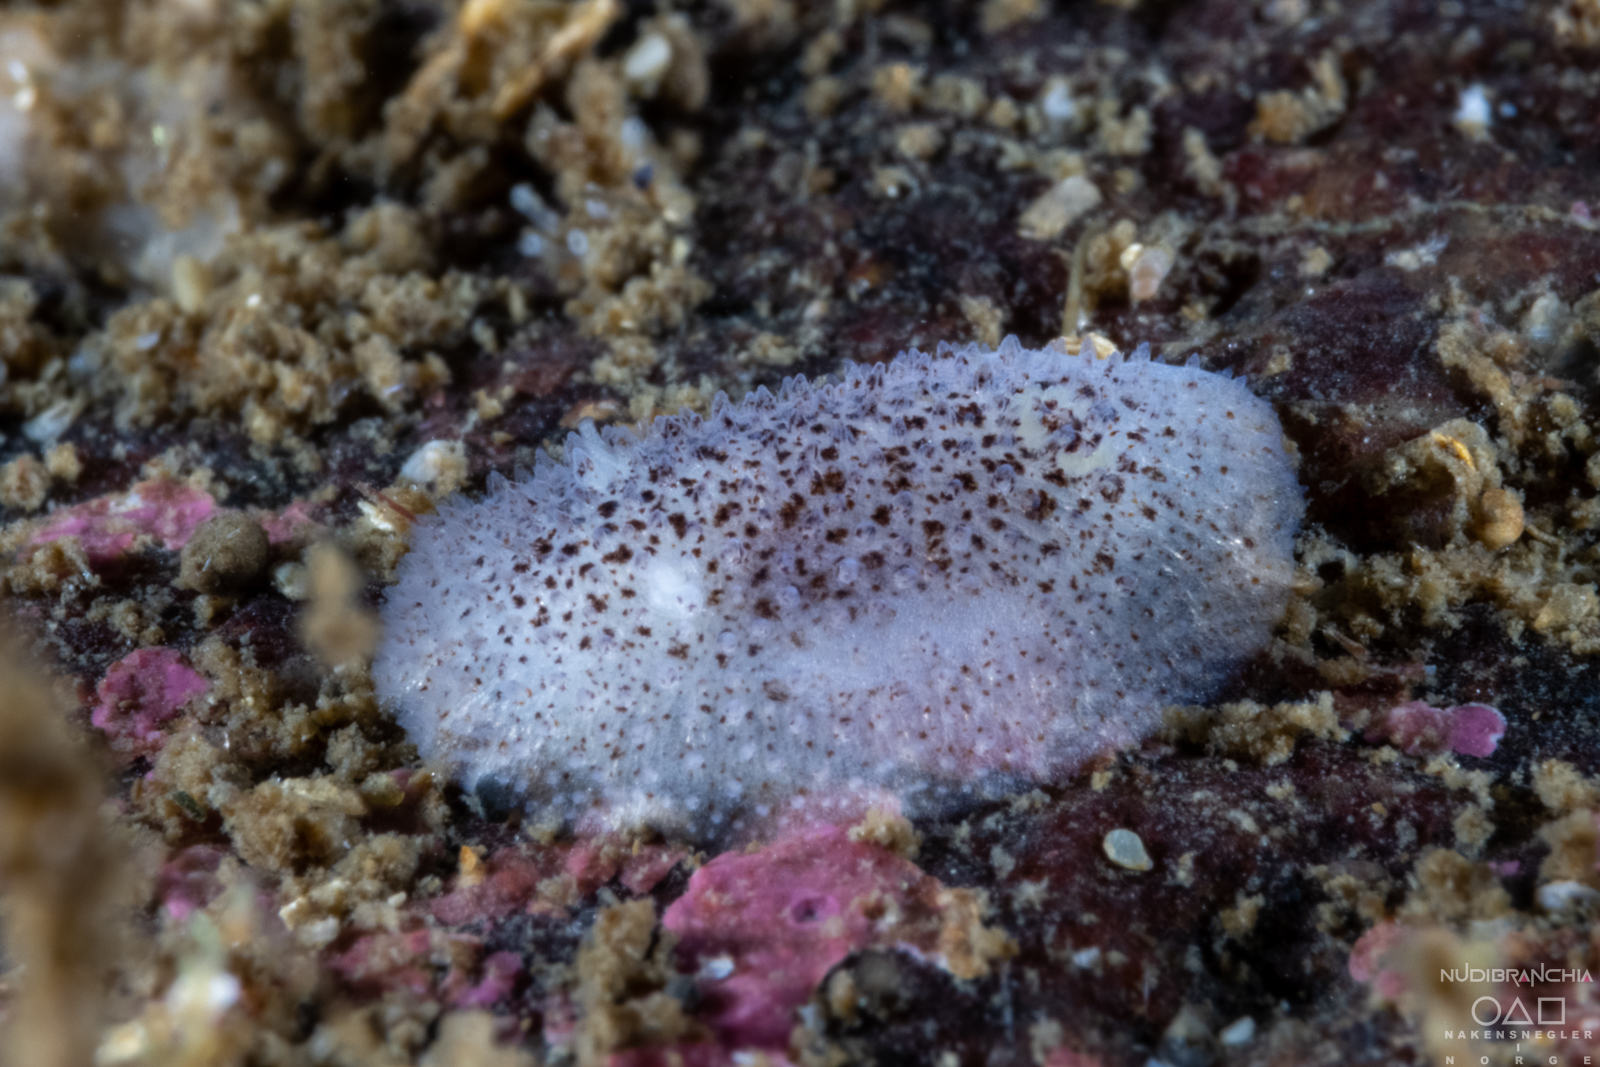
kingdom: Animalia
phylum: Mollusca
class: Gastropoda
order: Nudibranchia
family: Onchidorididae
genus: Atalodoris
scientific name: Atalodoris pusilla
